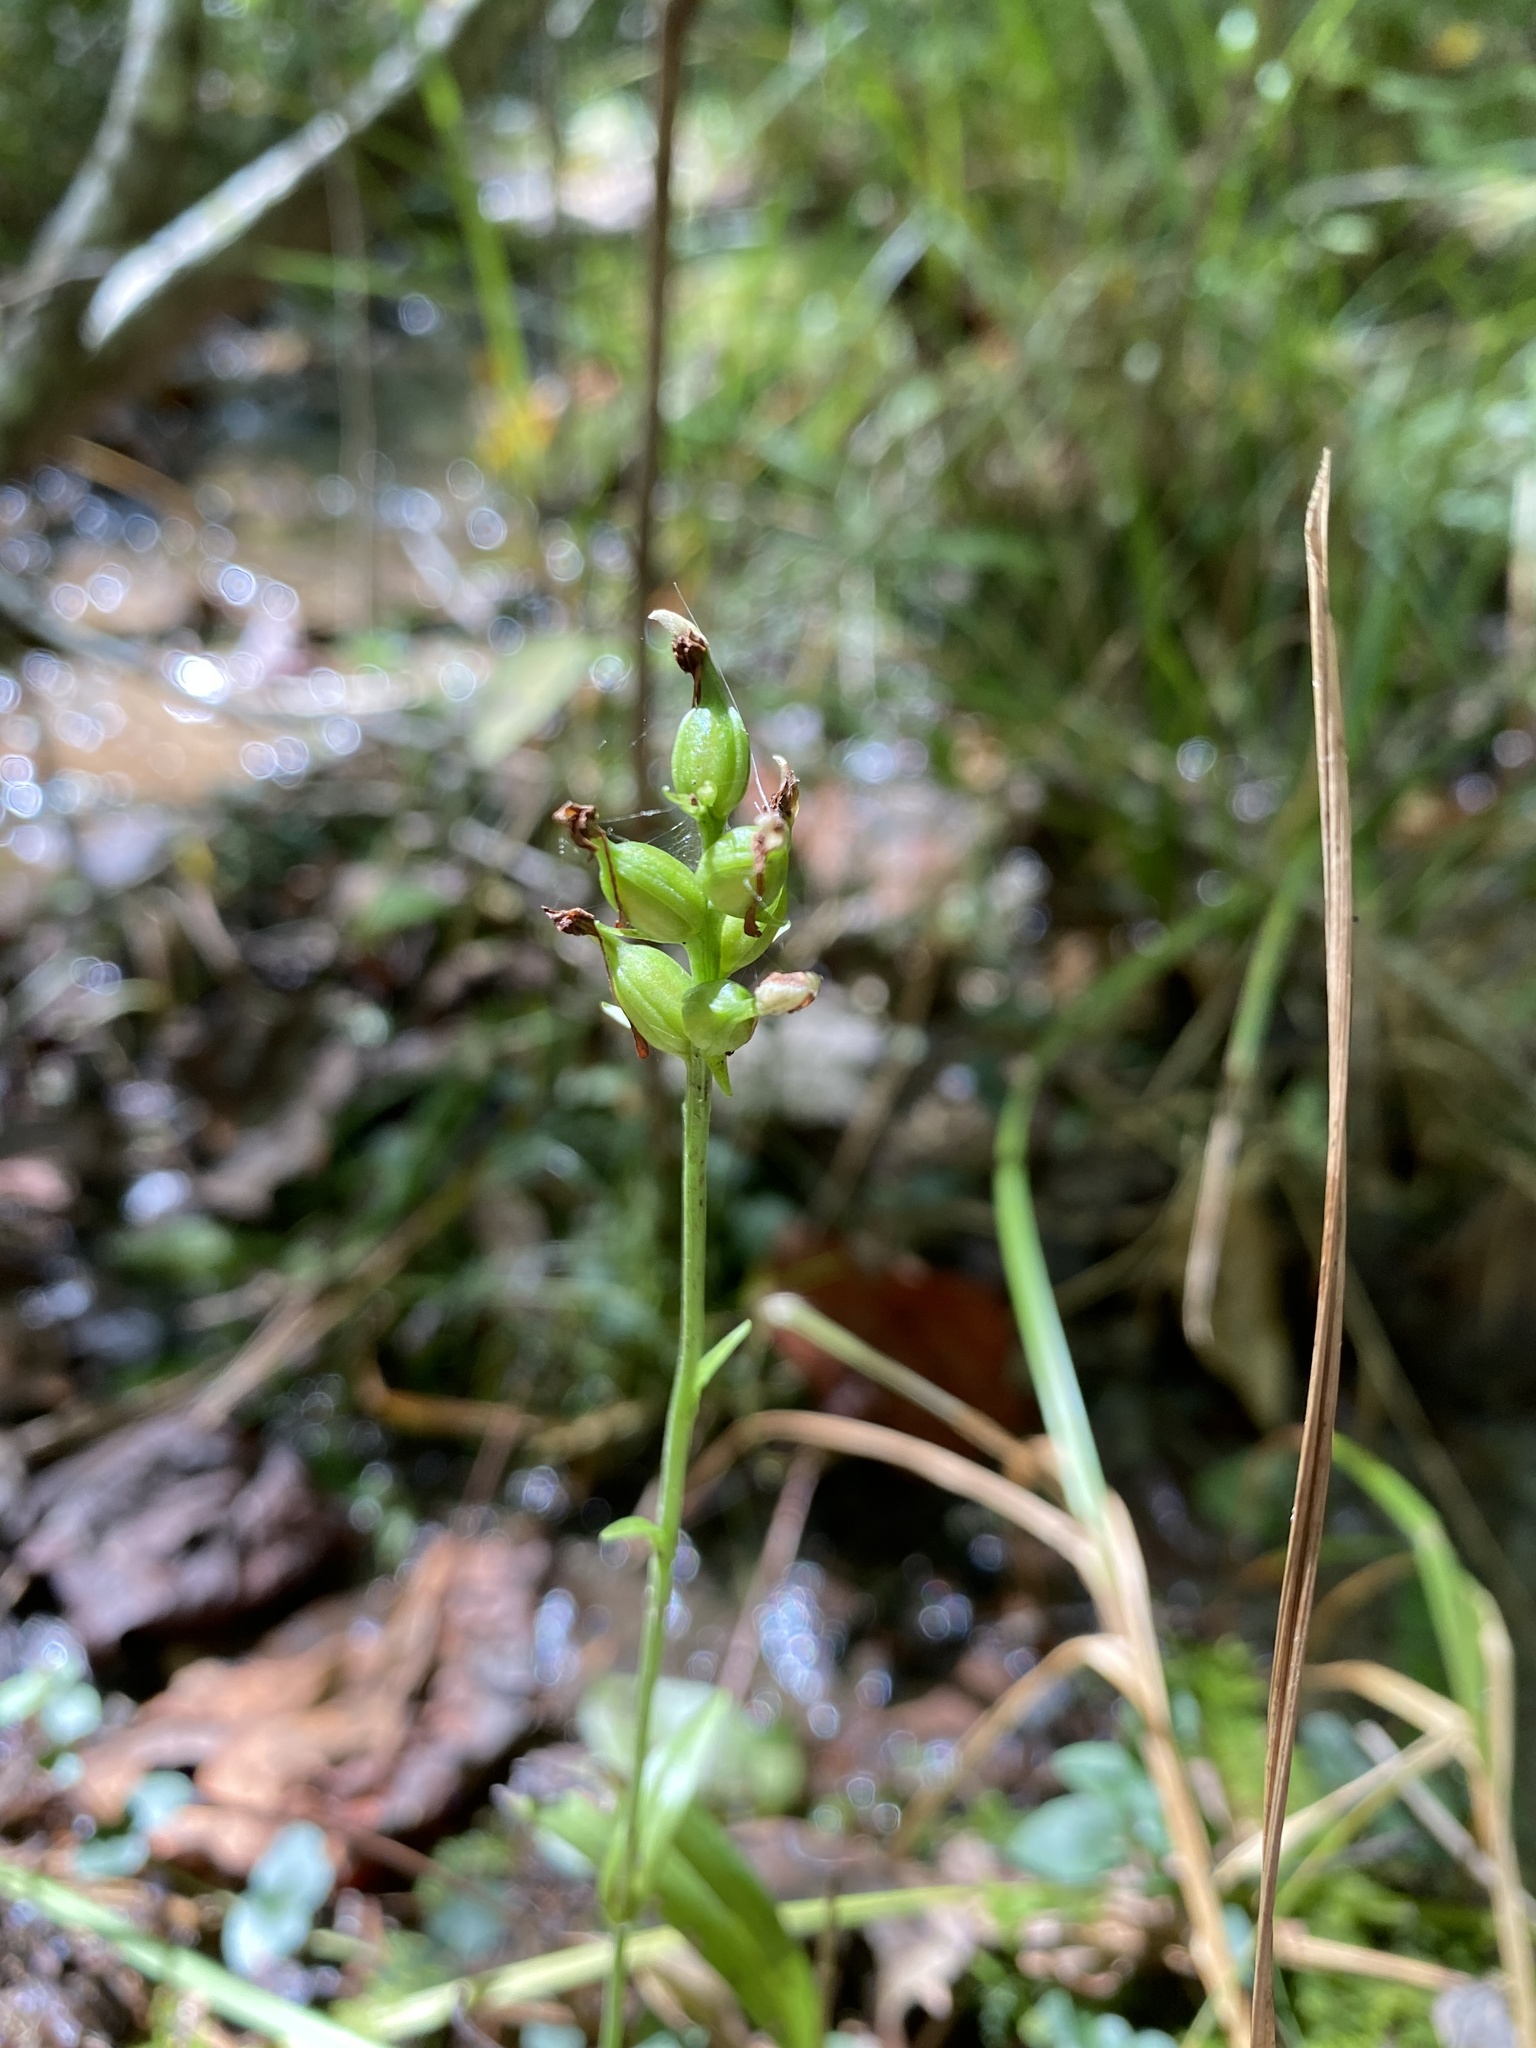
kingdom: Plantae
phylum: Tracheophyta
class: Liliopsida
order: Asparagales
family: Orchidaceae
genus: Platanthera
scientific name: Platanthera clavellata
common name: Club-spur orchid
